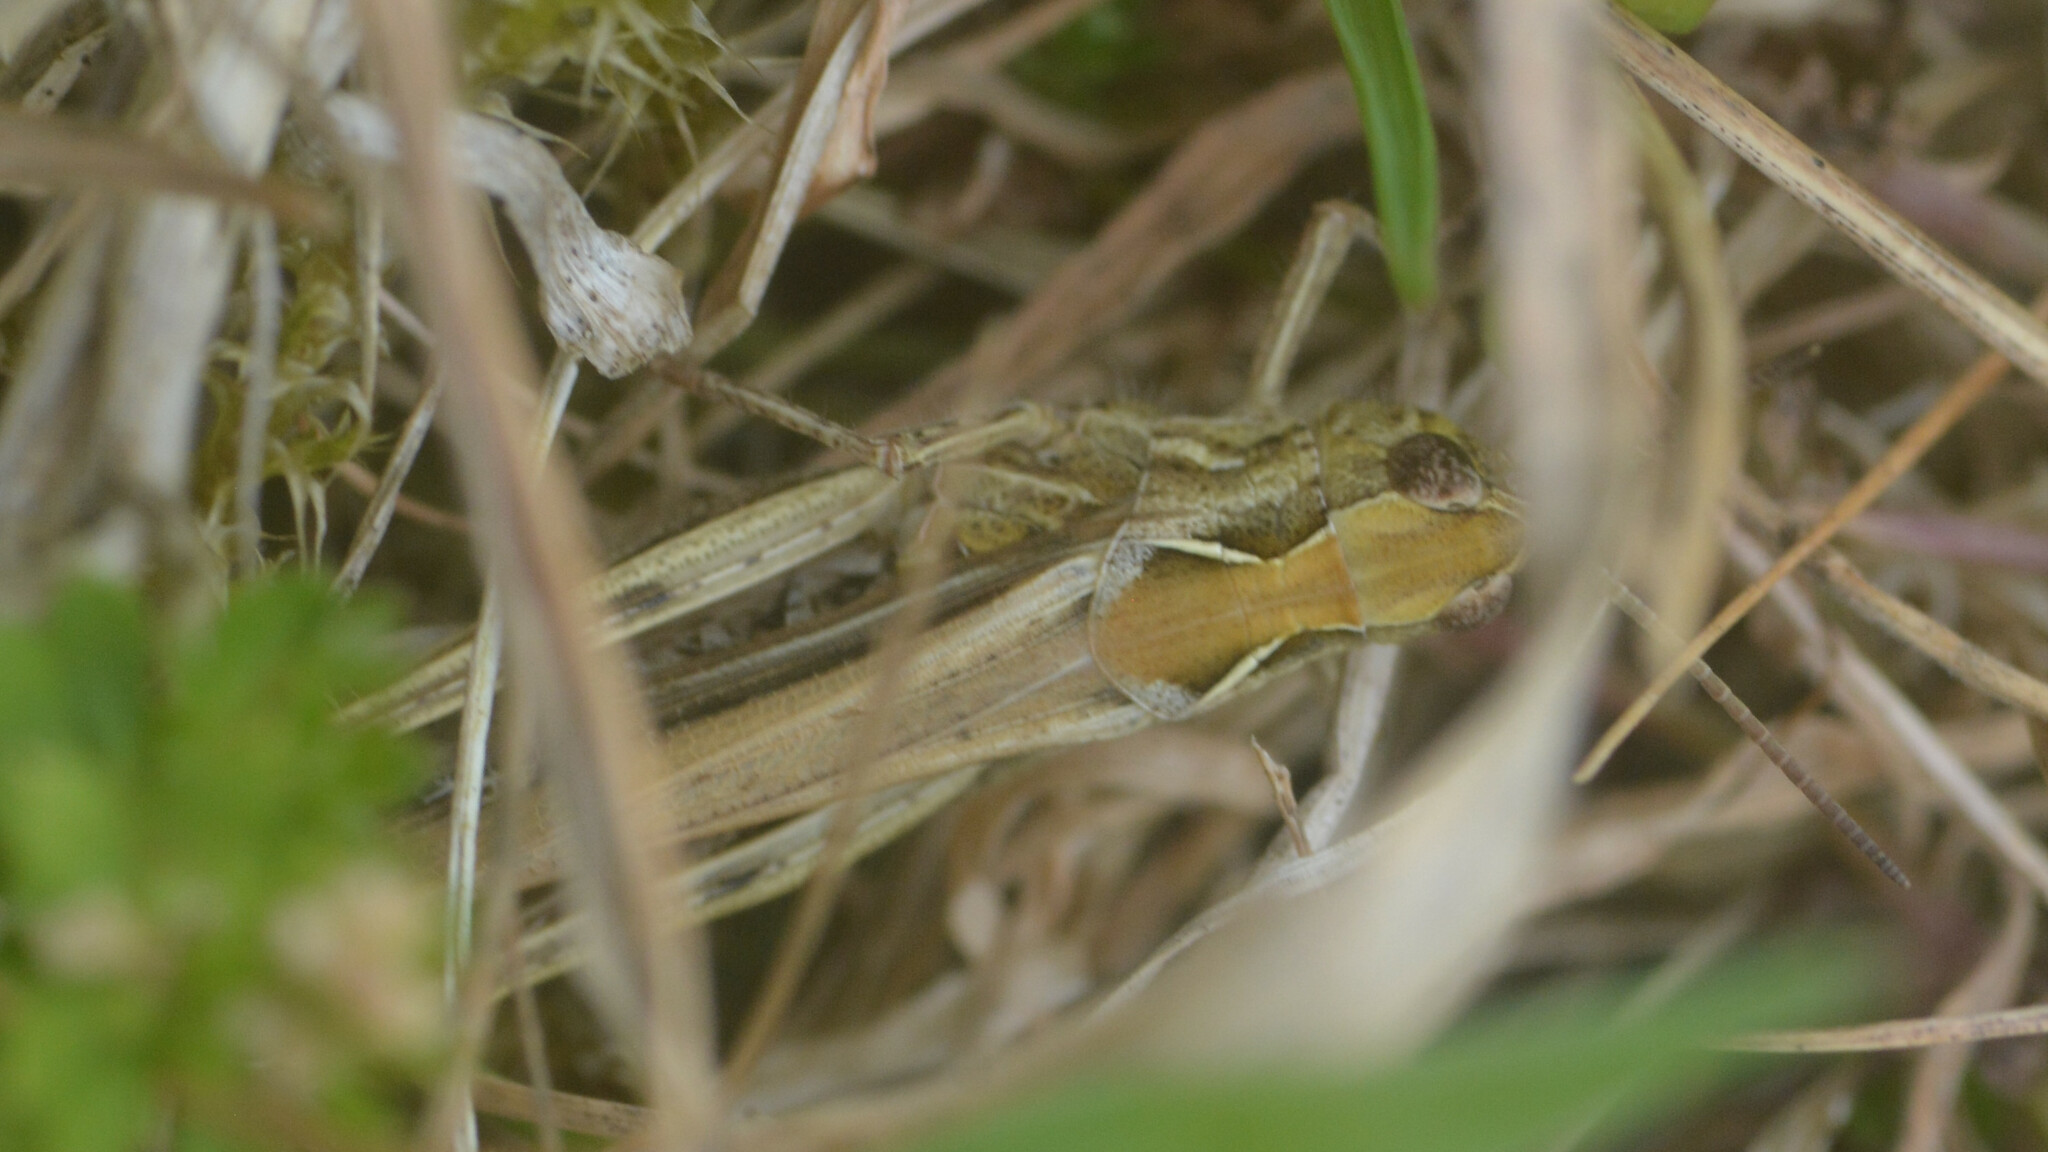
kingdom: Animalia
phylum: Arthropoda
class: Insecta
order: Orthoptera
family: Acrididae
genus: Chorthippus
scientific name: Chorthippus brunneus
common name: Field grasshopper
